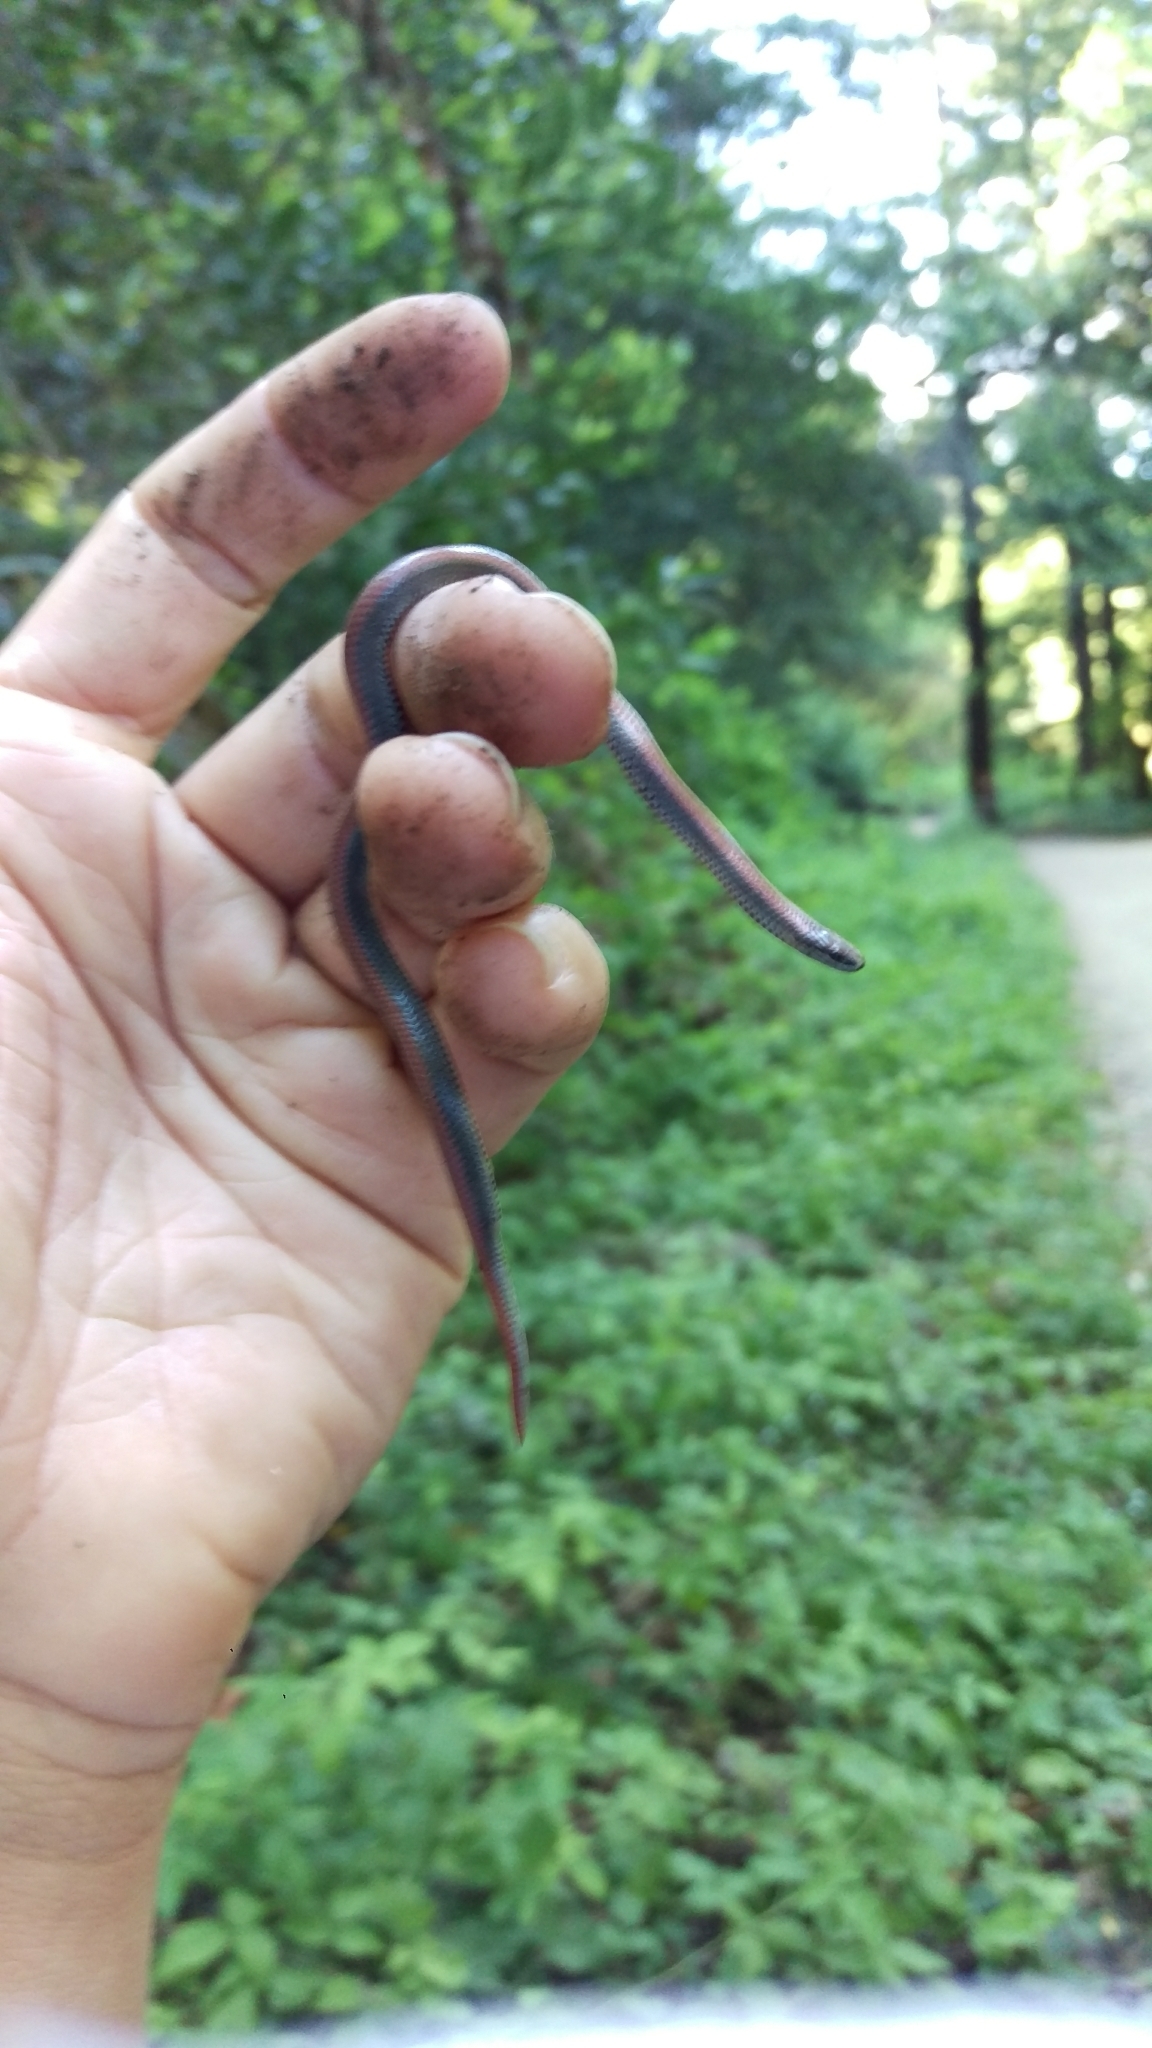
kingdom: Animalia
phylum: Chordata
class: Squamata
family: Colubridae
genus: Contia
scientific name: Contia tenuis
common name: Sharptail snake
